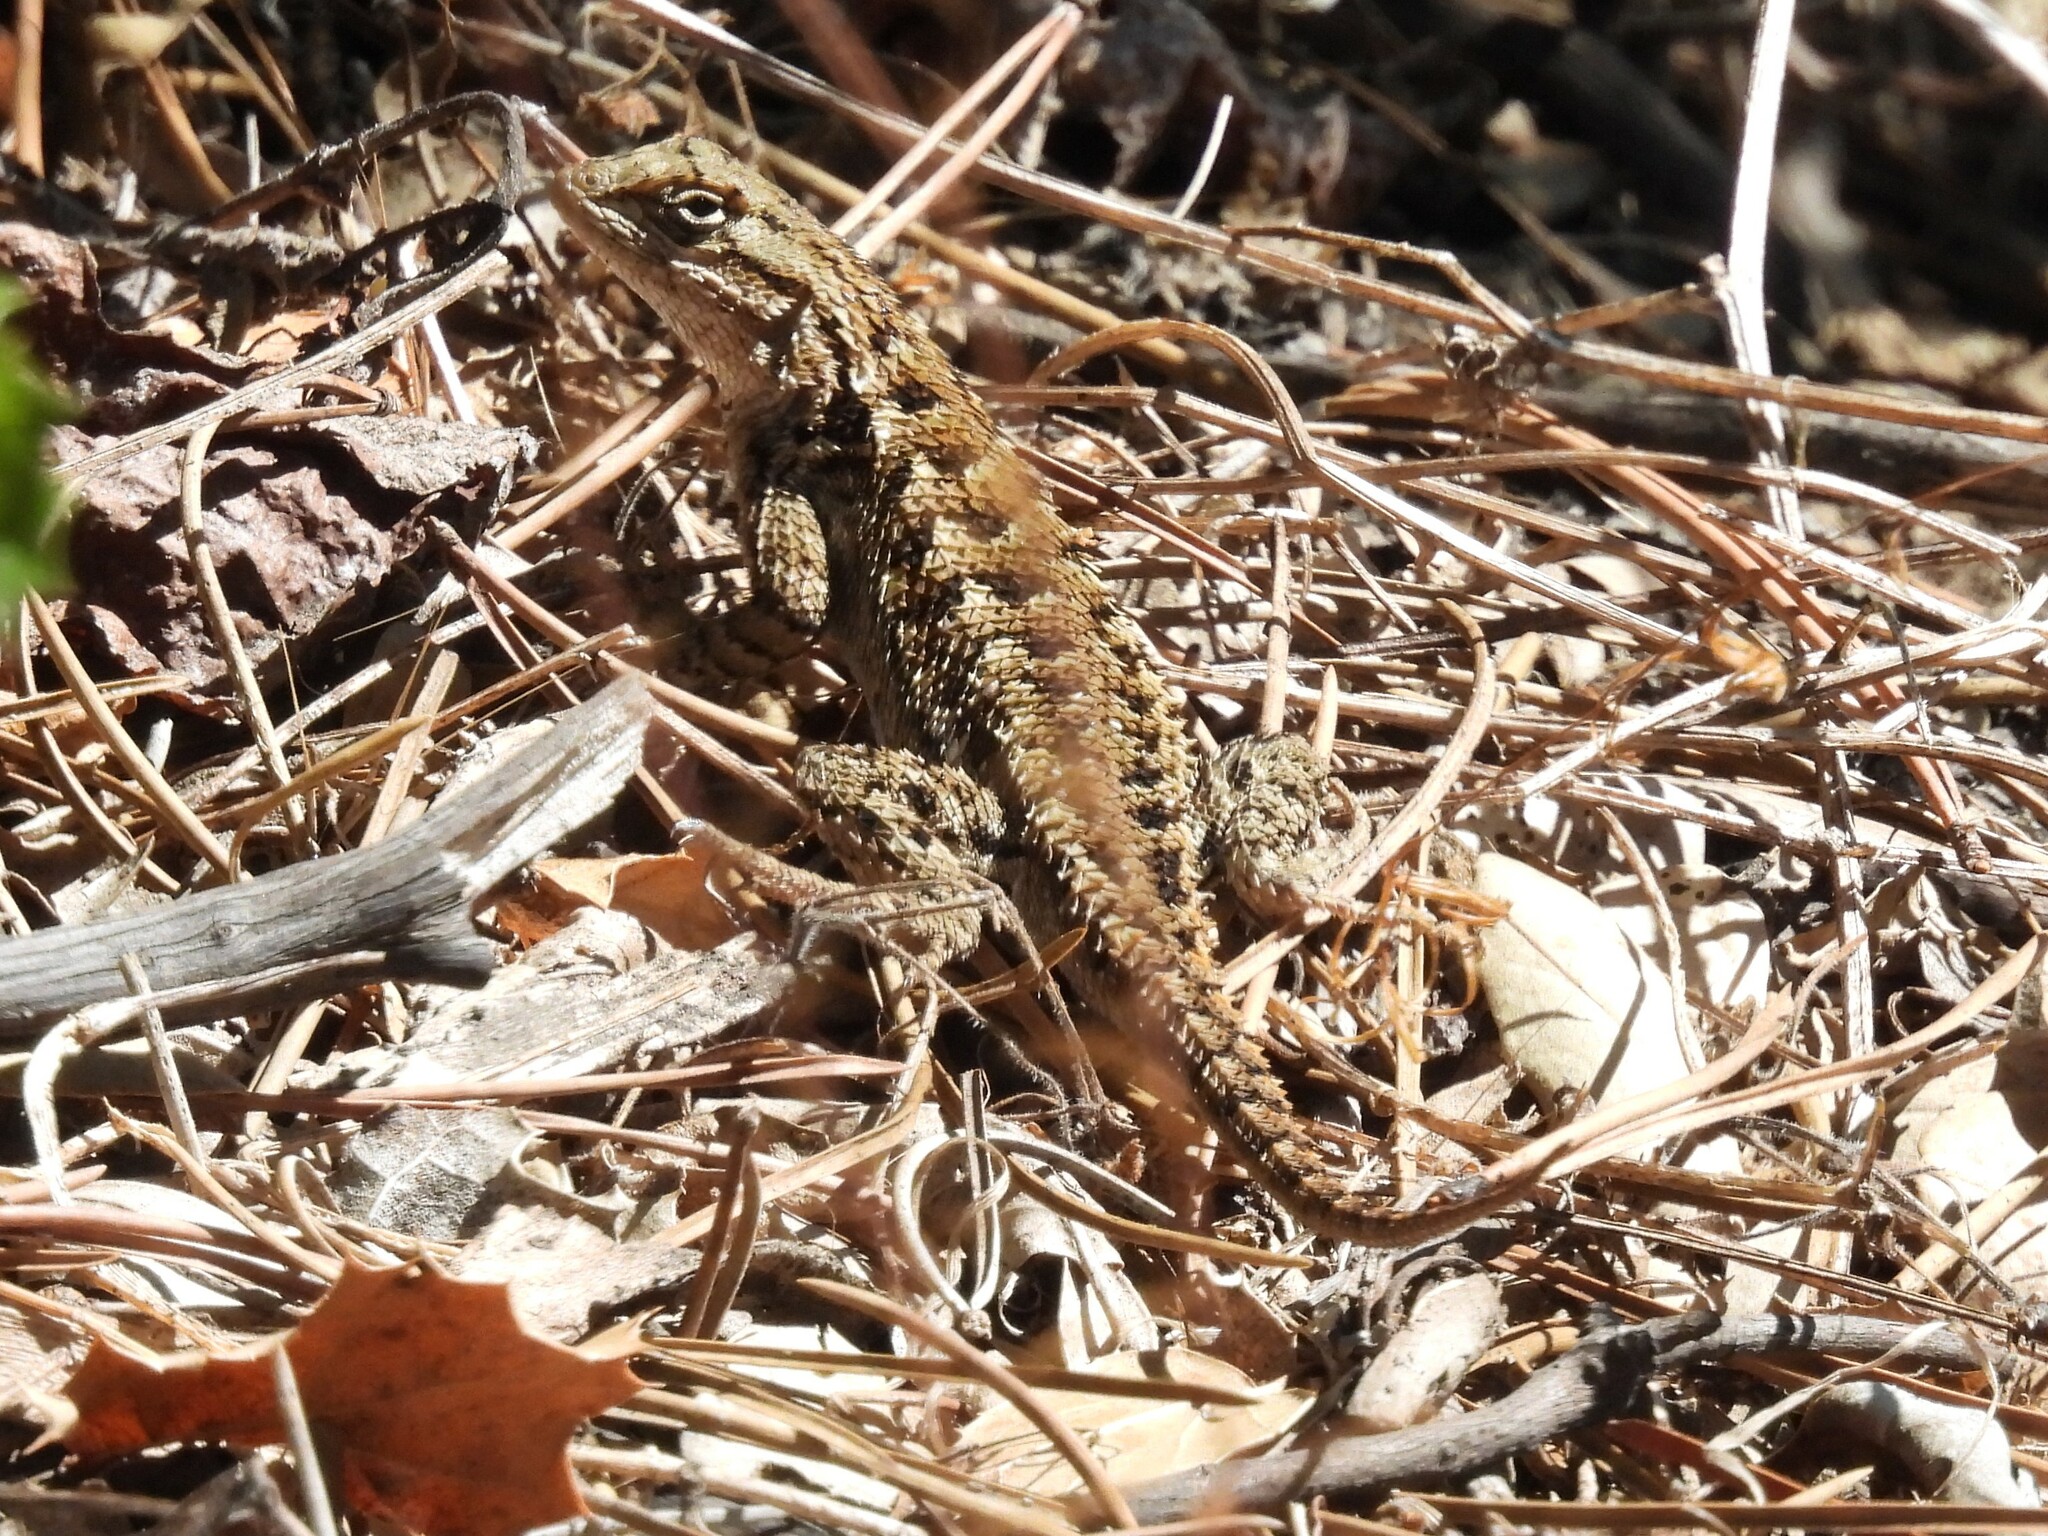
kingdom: Animalia
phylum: Chordata
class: Squamata
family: Phrynosomatidae
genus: Sceloporus
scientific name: Sceloporus occidentalis
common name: Western fence lizard
